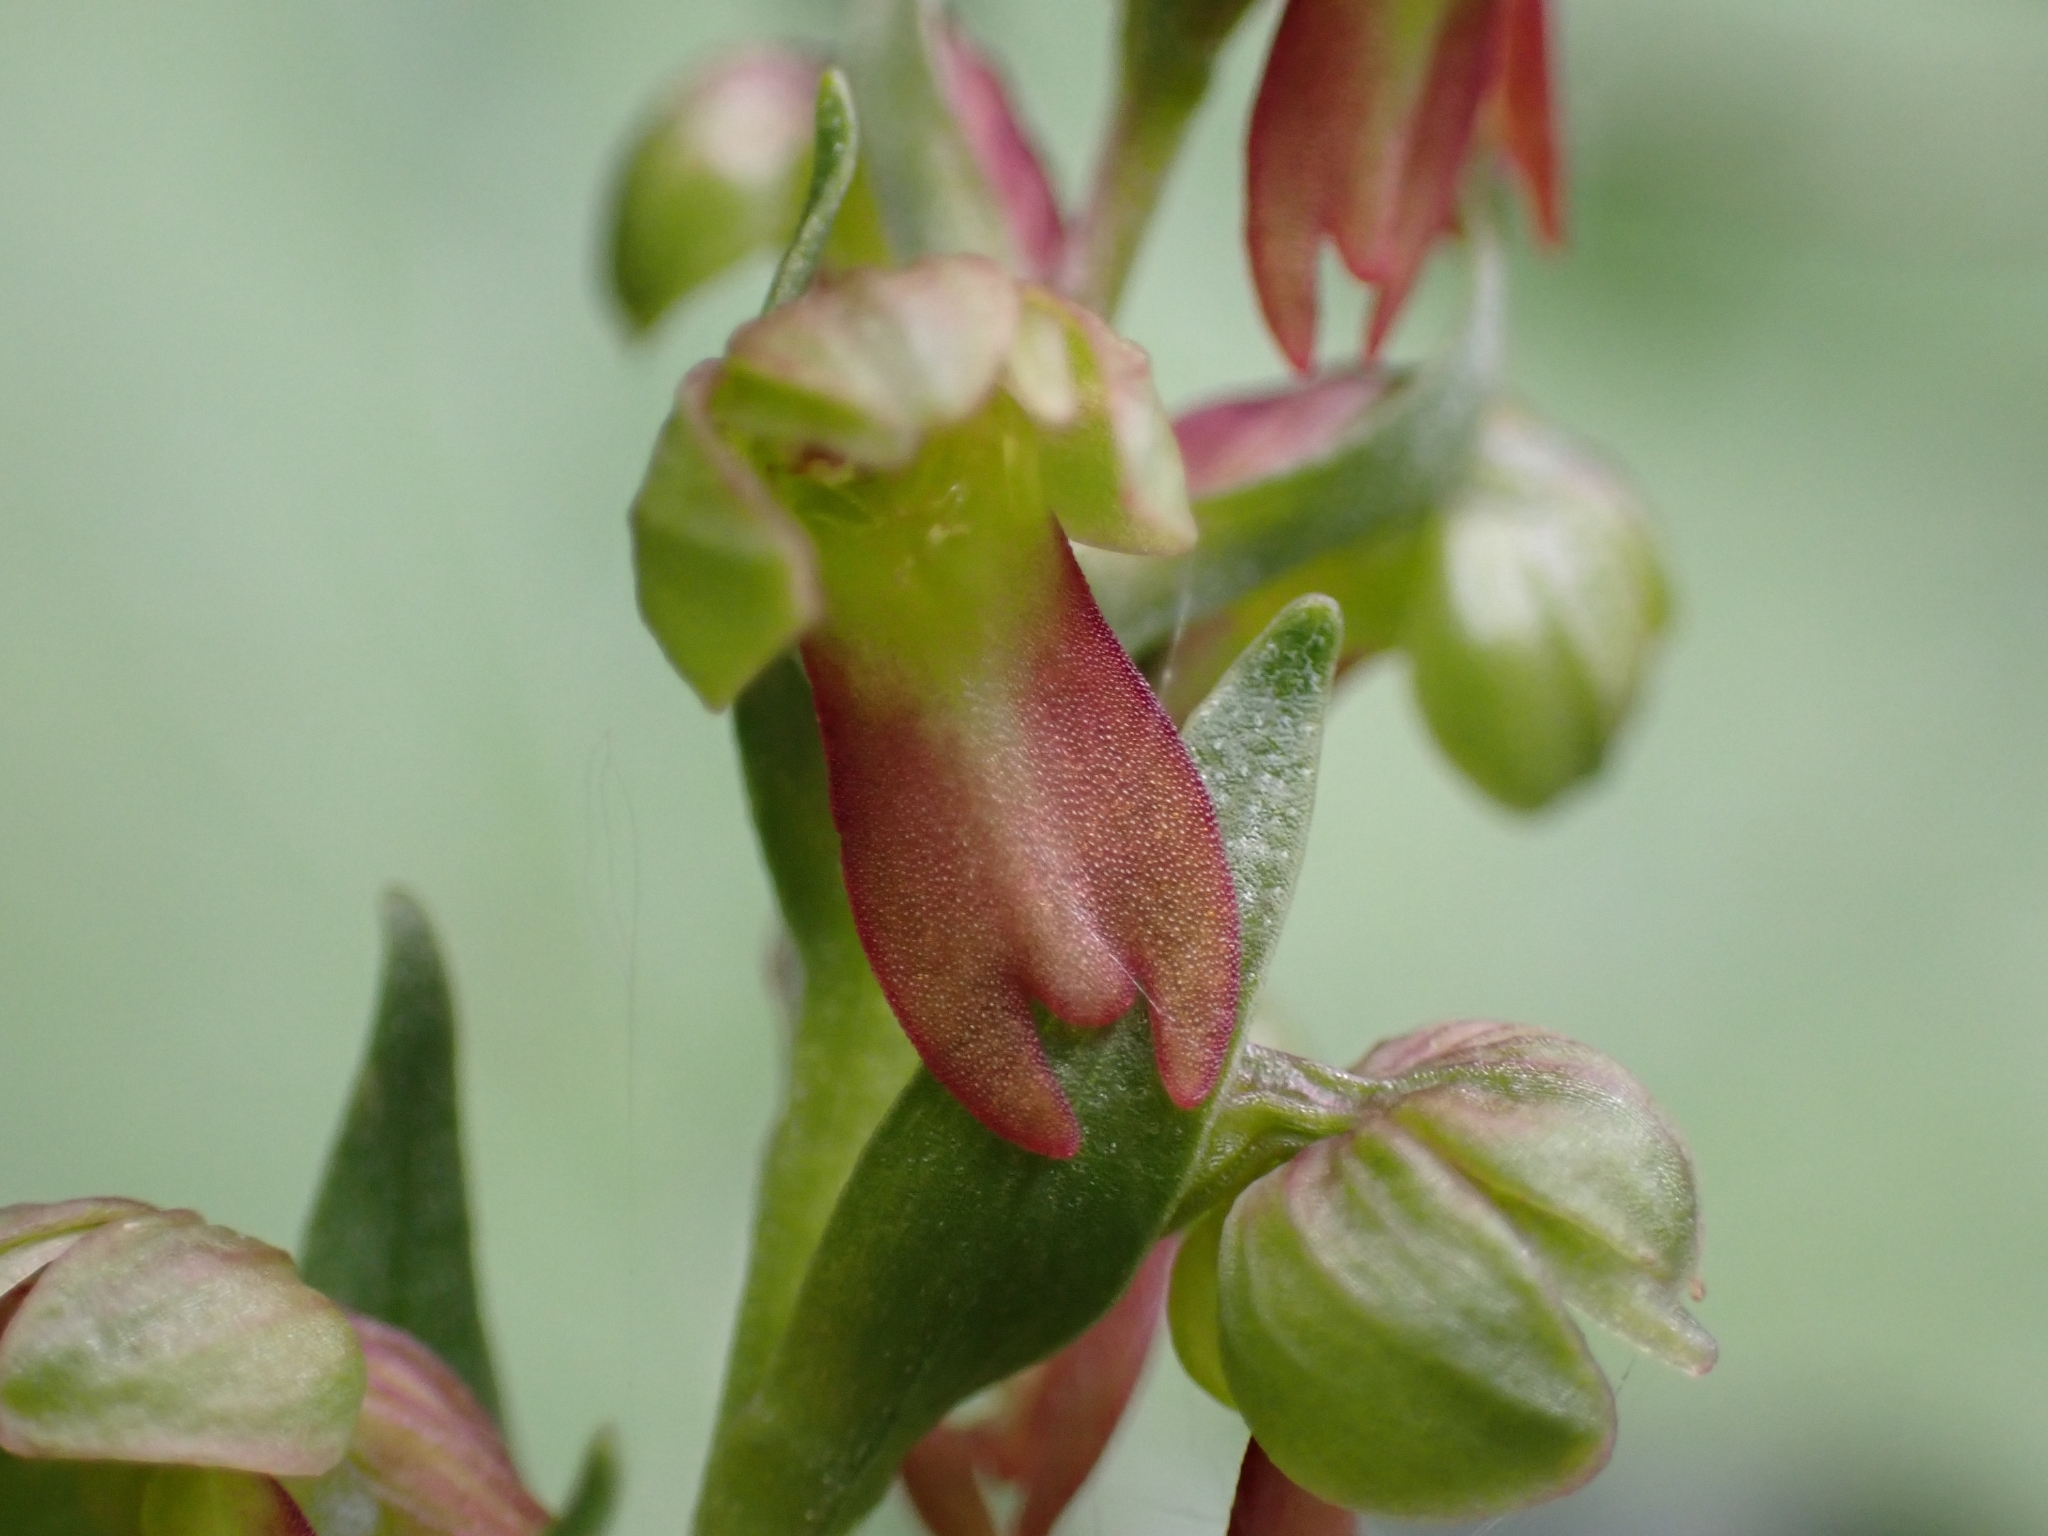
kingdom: Plantae
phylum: Tracheophyta
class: Liliopsida
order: Asparagales
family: Orchidaceae
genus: Dactylorhiza
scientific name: Dactylorhiza viridis
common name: Longbract frog orchid
